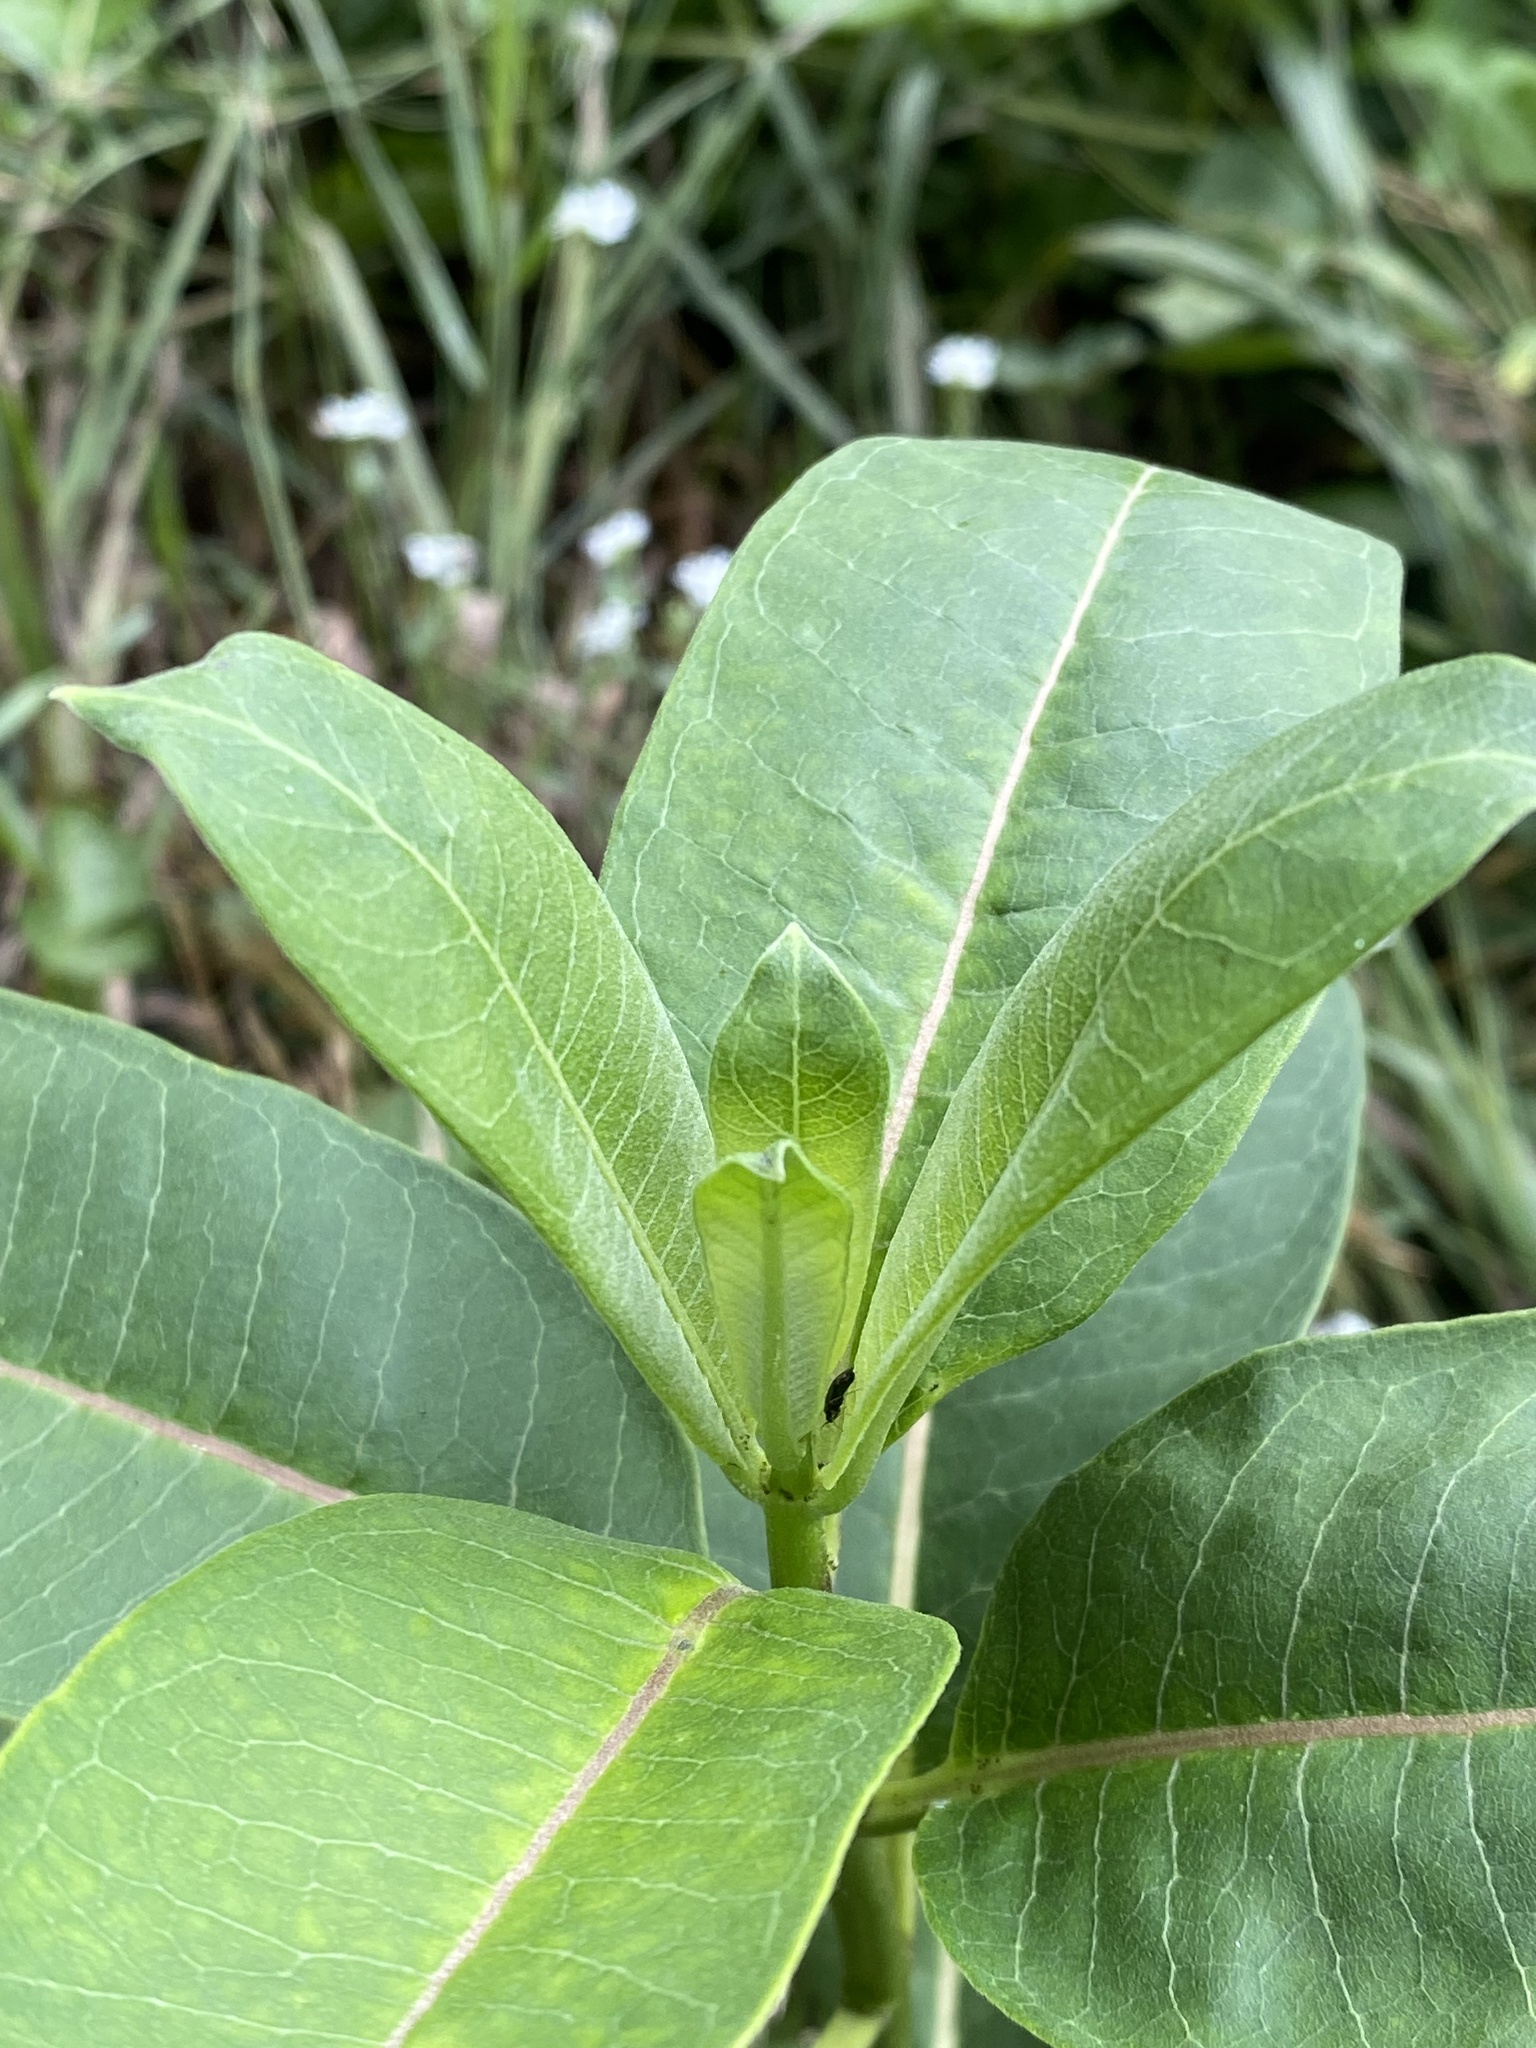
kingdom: Plantae
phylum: Tracheophyta
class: Magnoliopsida
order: Gentianales
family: Apocynaceae
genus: Asclepias
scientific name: Asclepias syriaca
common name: Common milkweed
